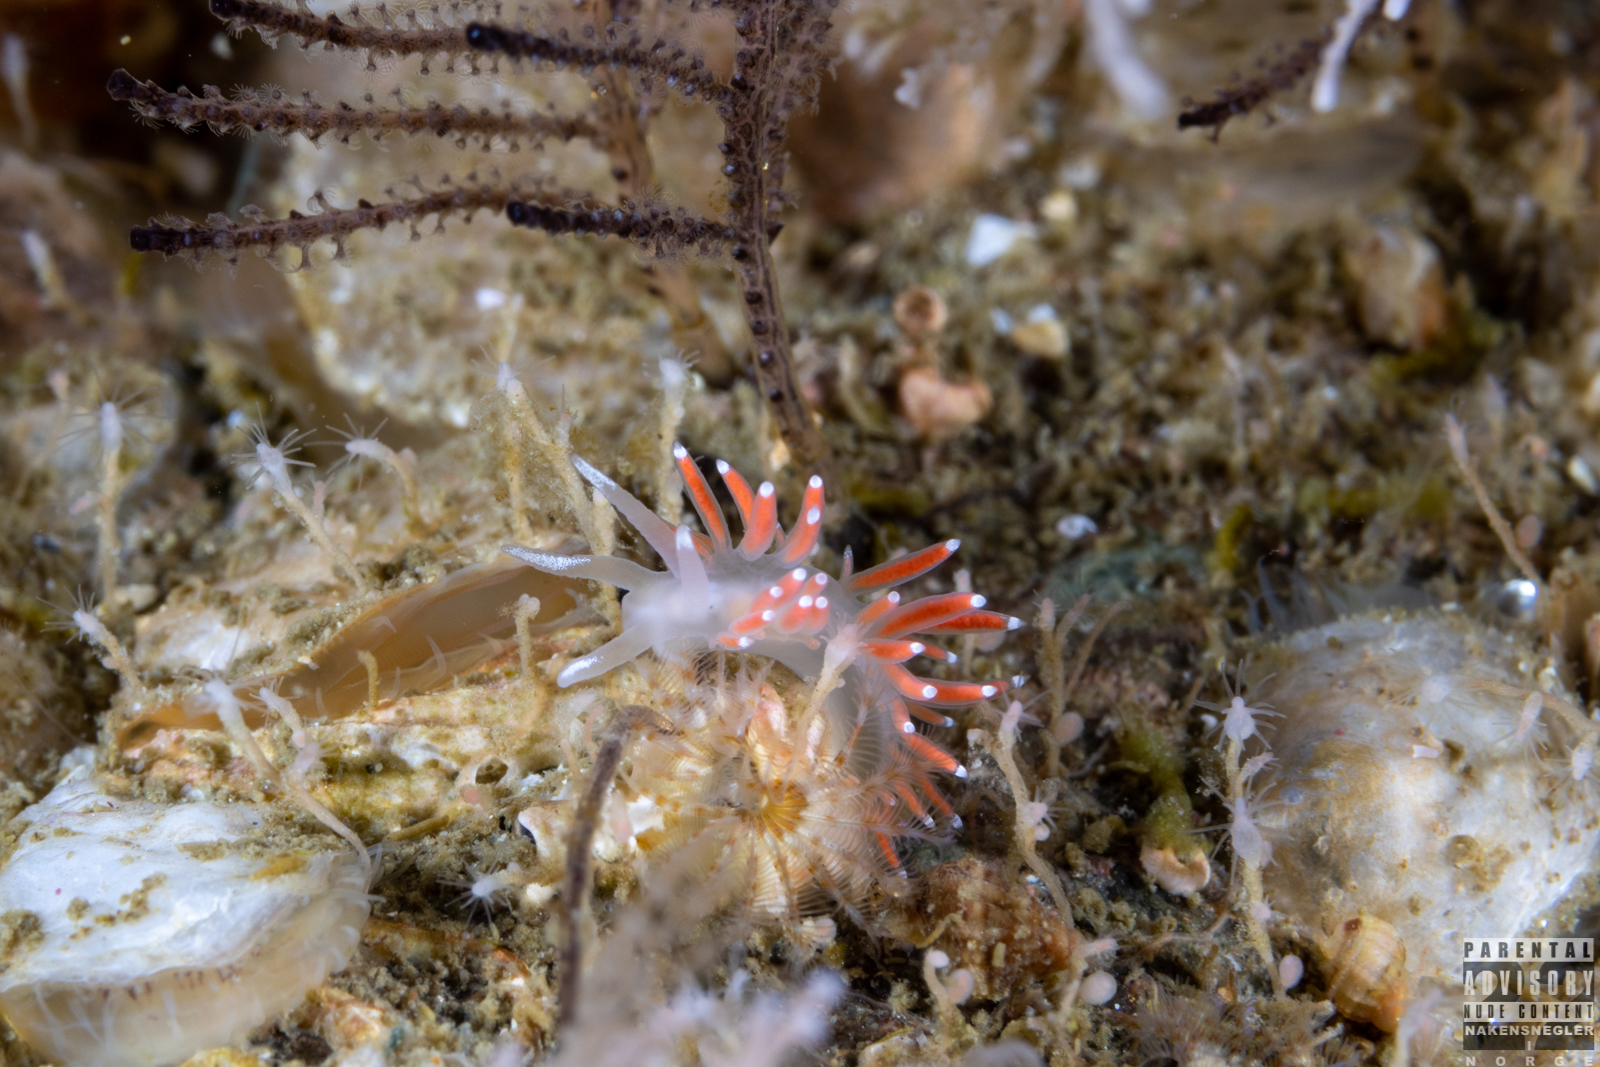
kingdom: Animalia
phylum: Mollusca
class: Gastropoda
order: Nudibranchia
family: Coryphellidae
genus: Coryphella
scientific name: Coryphella gracilis
